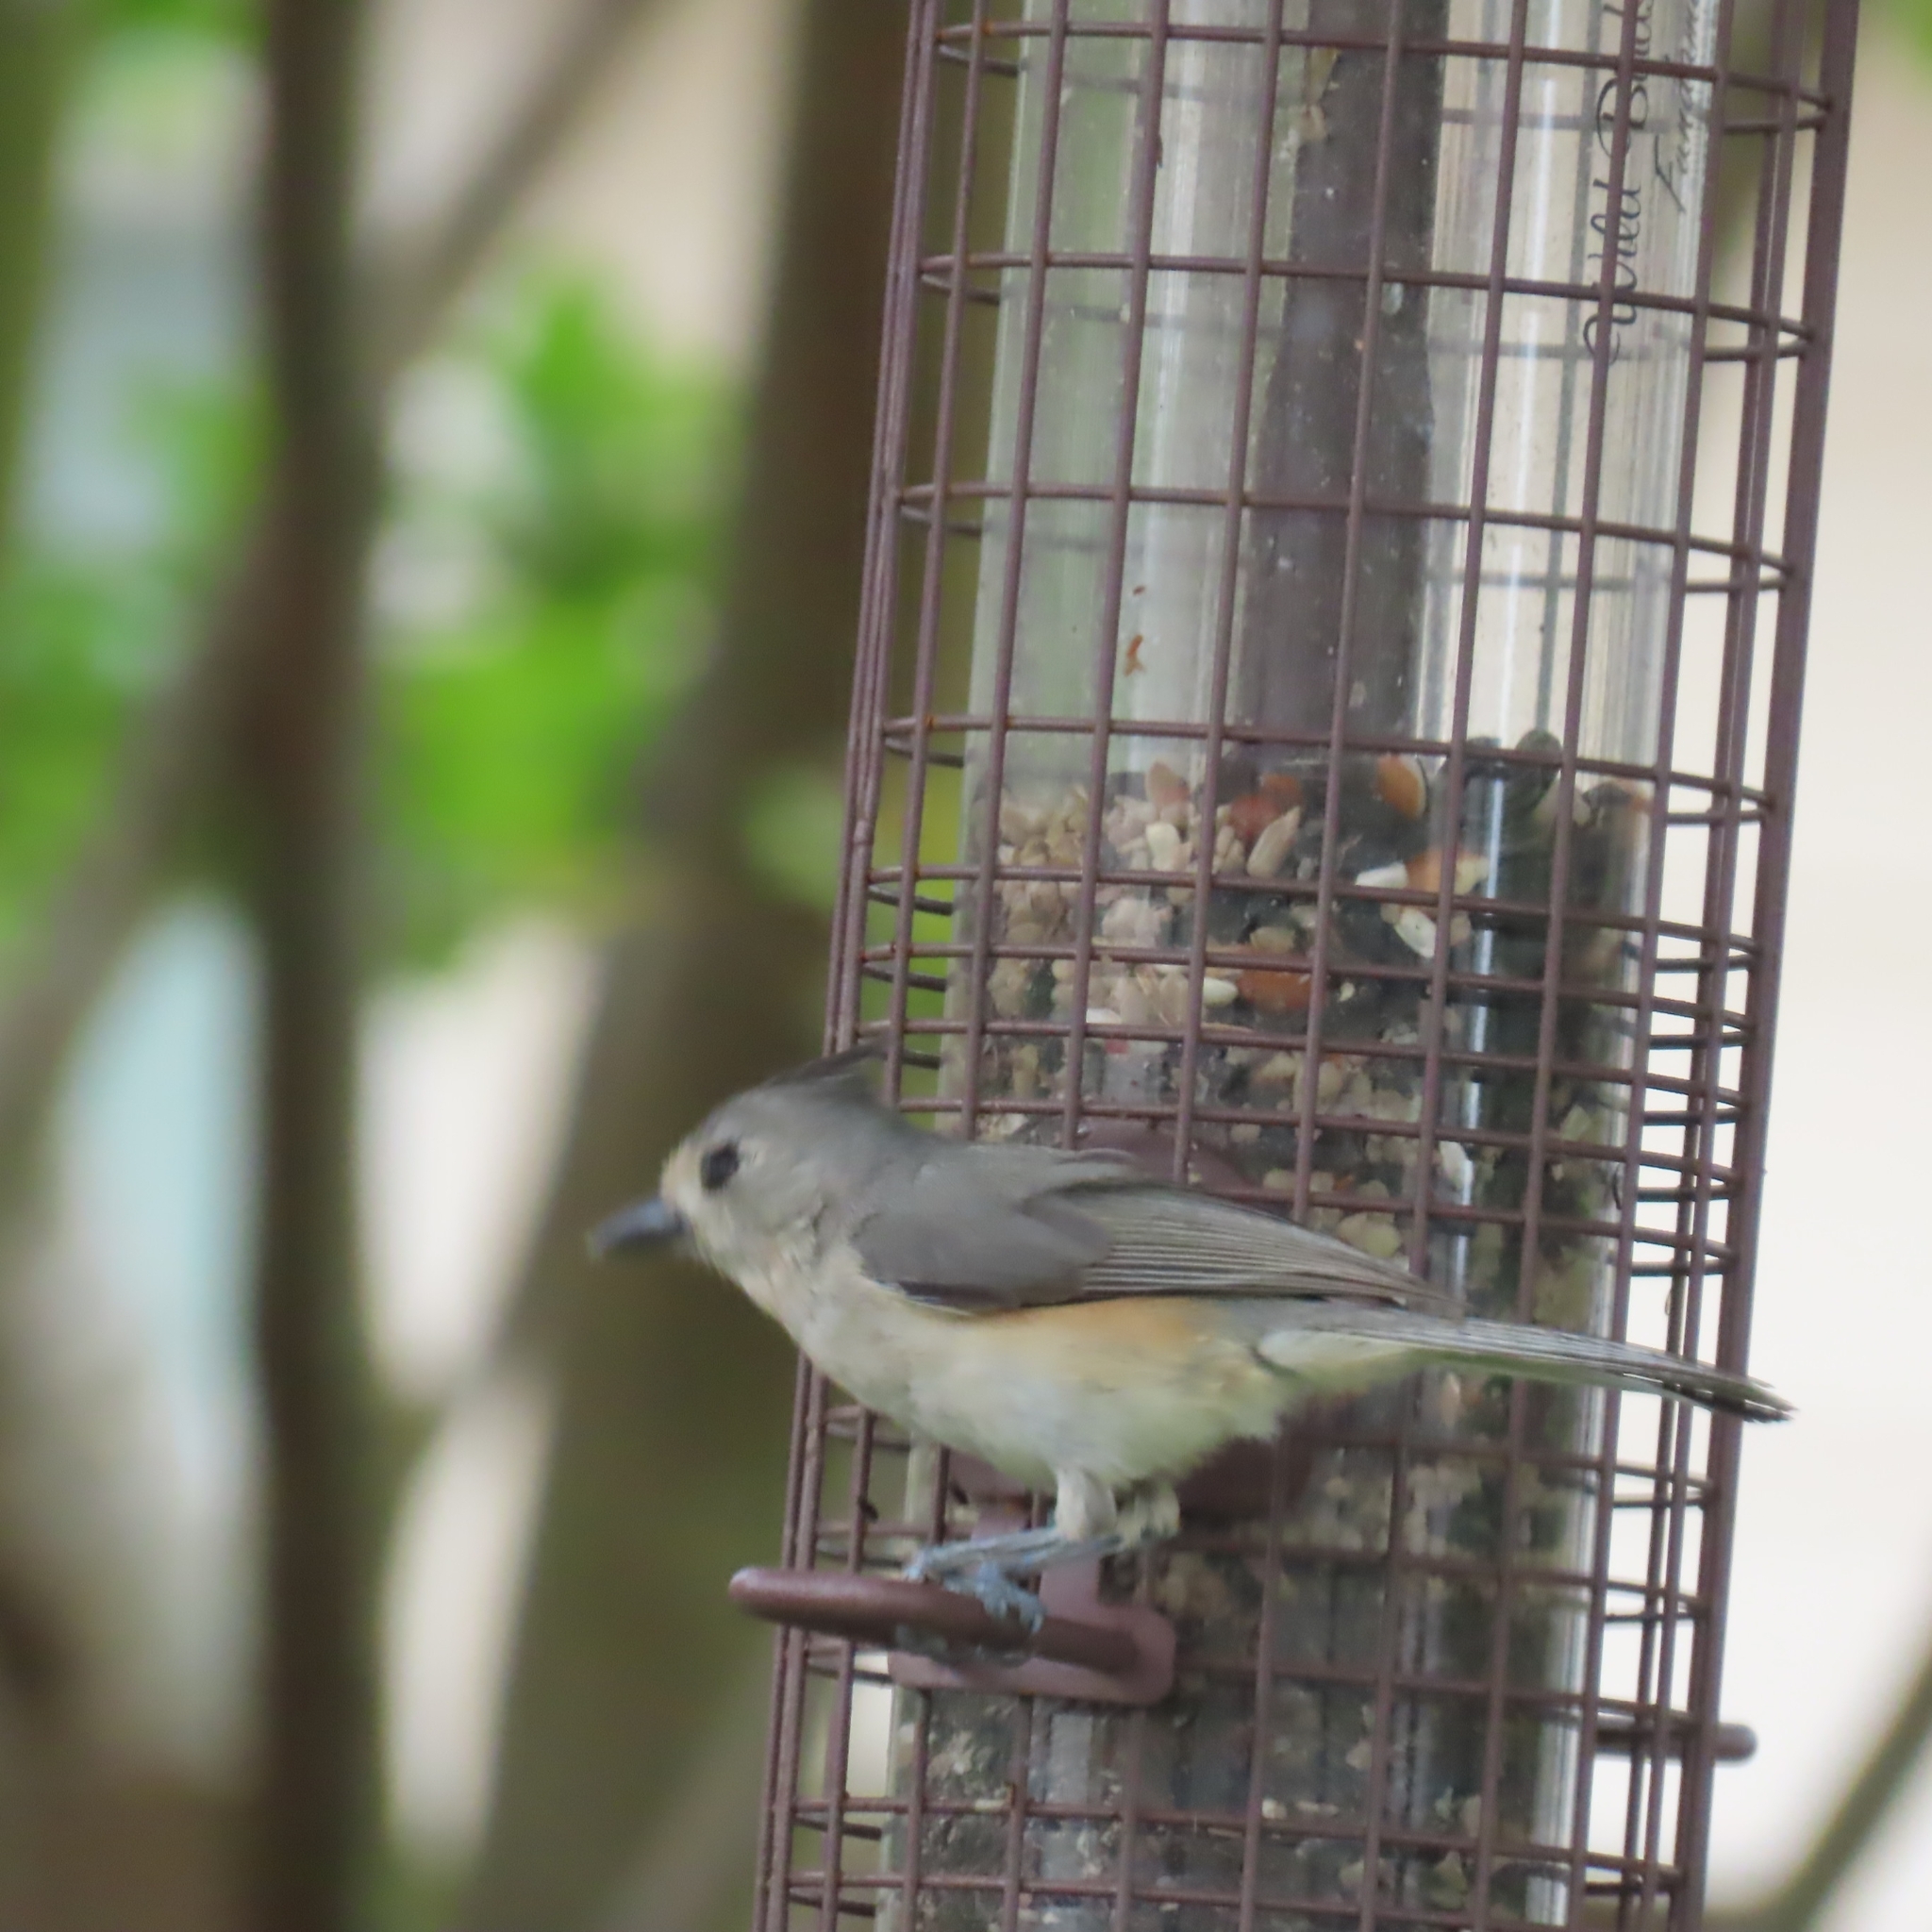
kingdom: Animalia
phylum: Chordata
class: Aves
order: Passeriformes
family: Paridae
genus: Baeolophus
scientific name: Baeolophus atricristatus
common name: Black-crested titmouse
